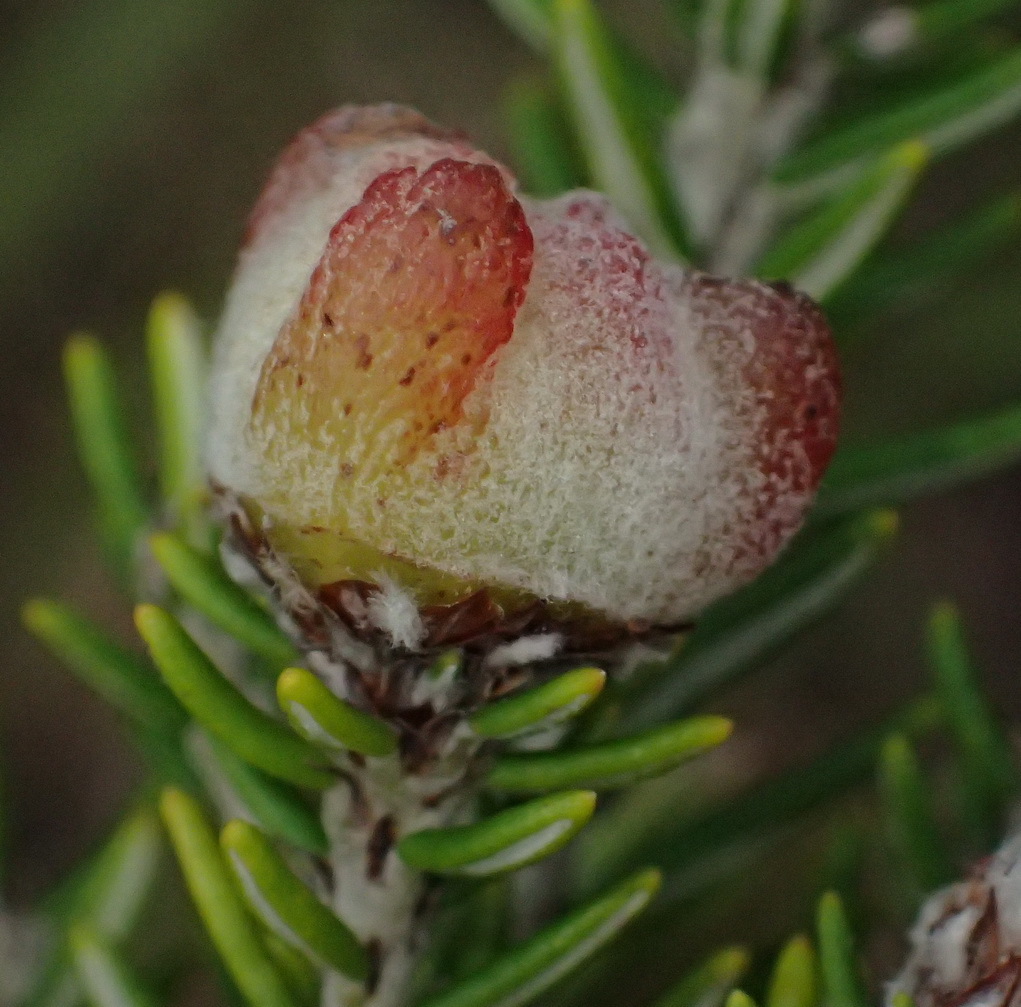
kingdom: Plantae
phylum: Tracheophyta
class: Magnoliopsida
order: Rosales
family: Rhamnaceae
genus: Trichocephalus
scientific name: Trichocephalus stipularis
